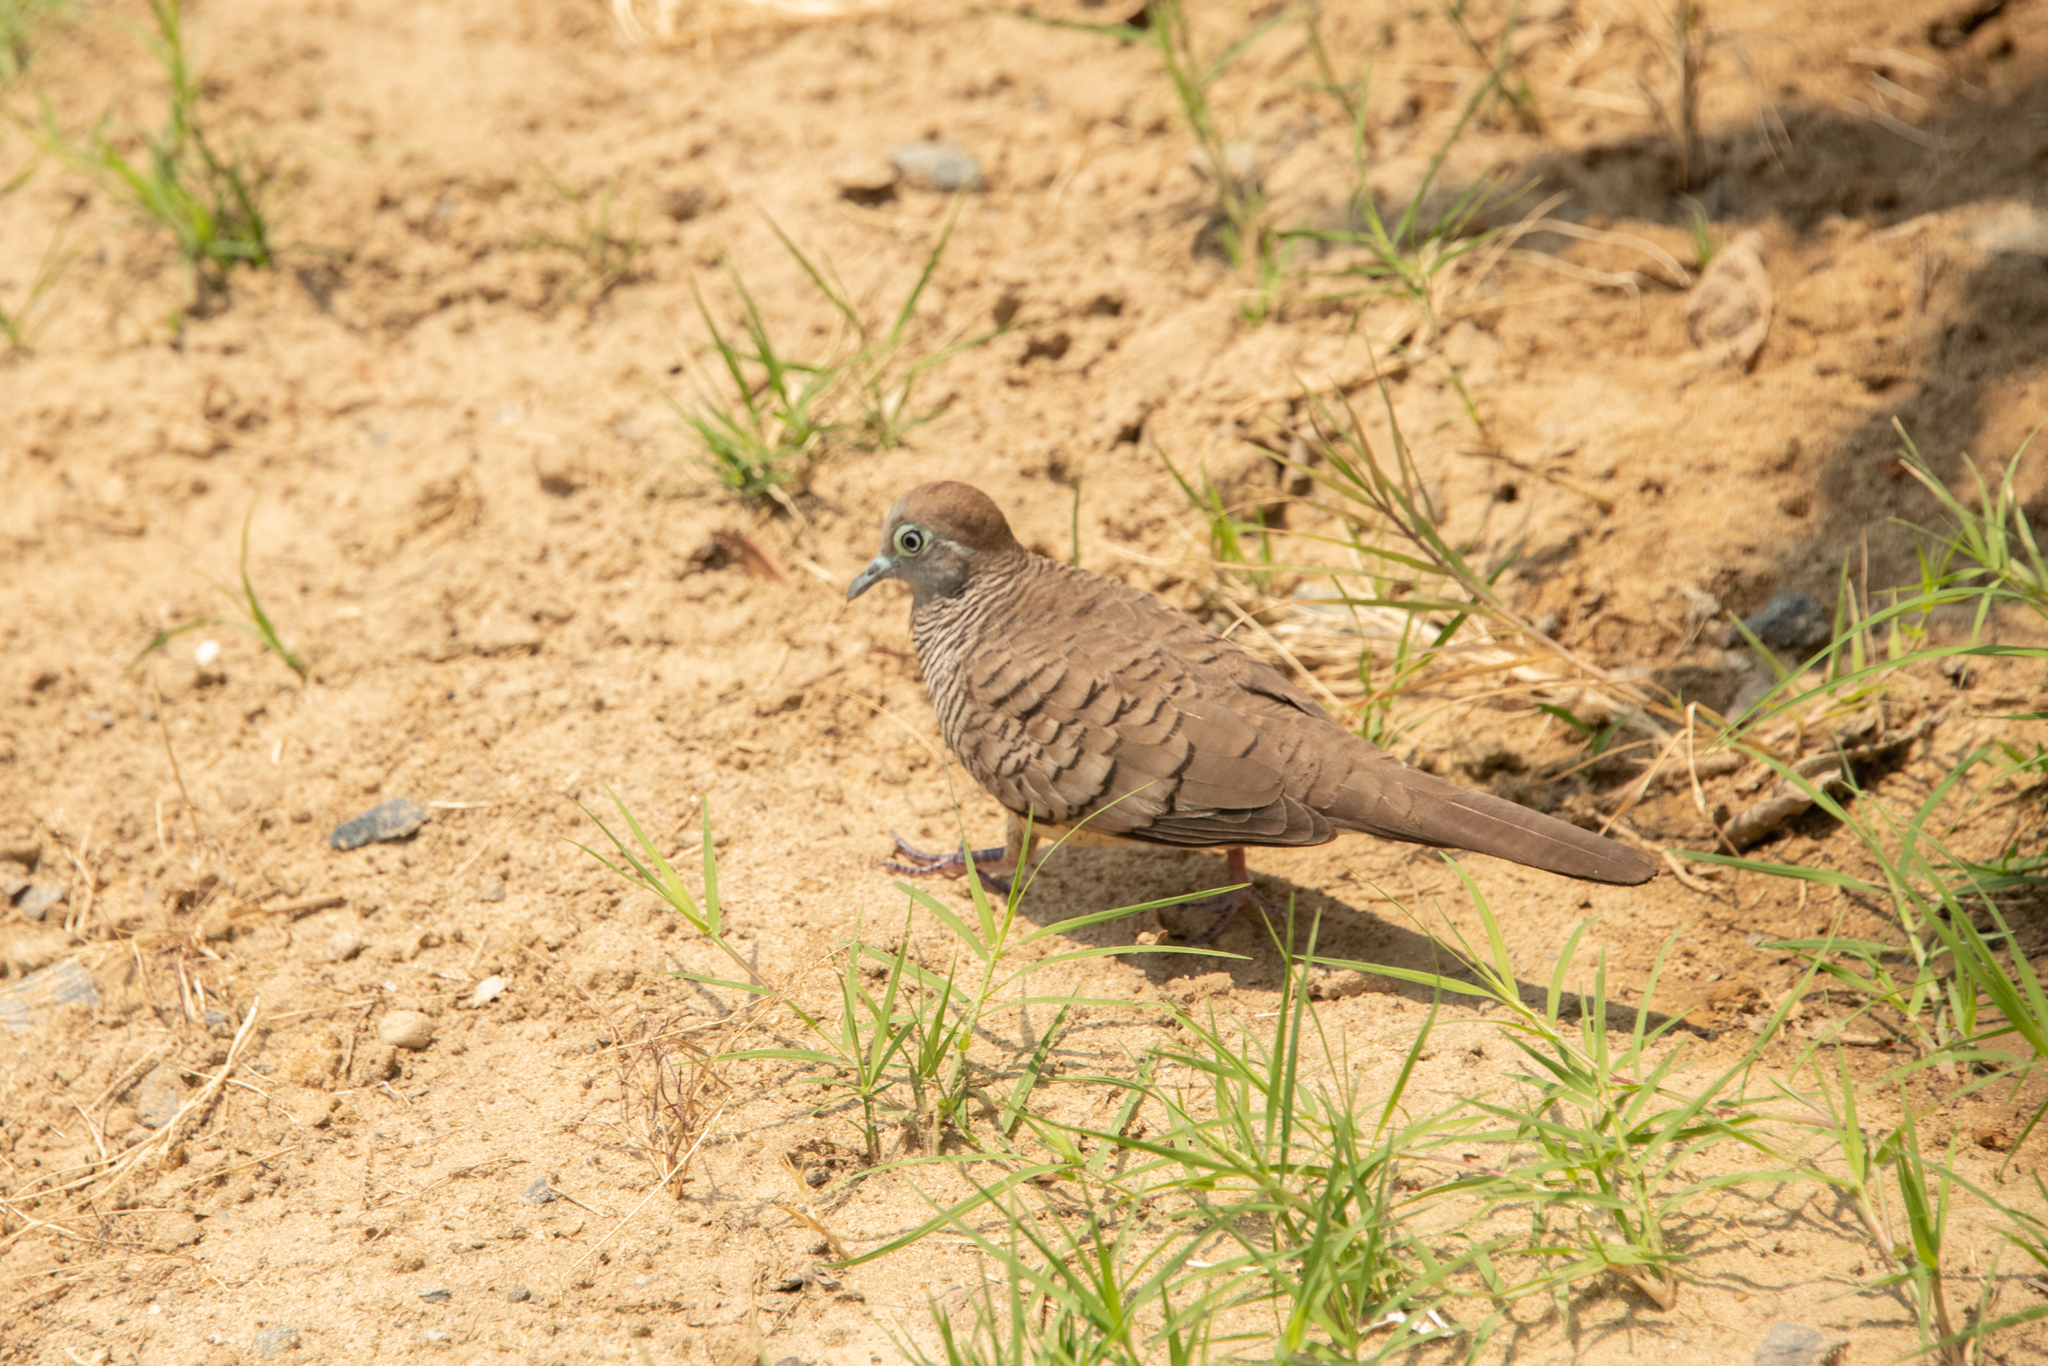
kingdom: Animalia
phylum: Chordata
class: Aves
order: Columbiformes
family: Columbidae
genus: Geopelia
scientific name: Geopelia striata
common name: Zebra dove
